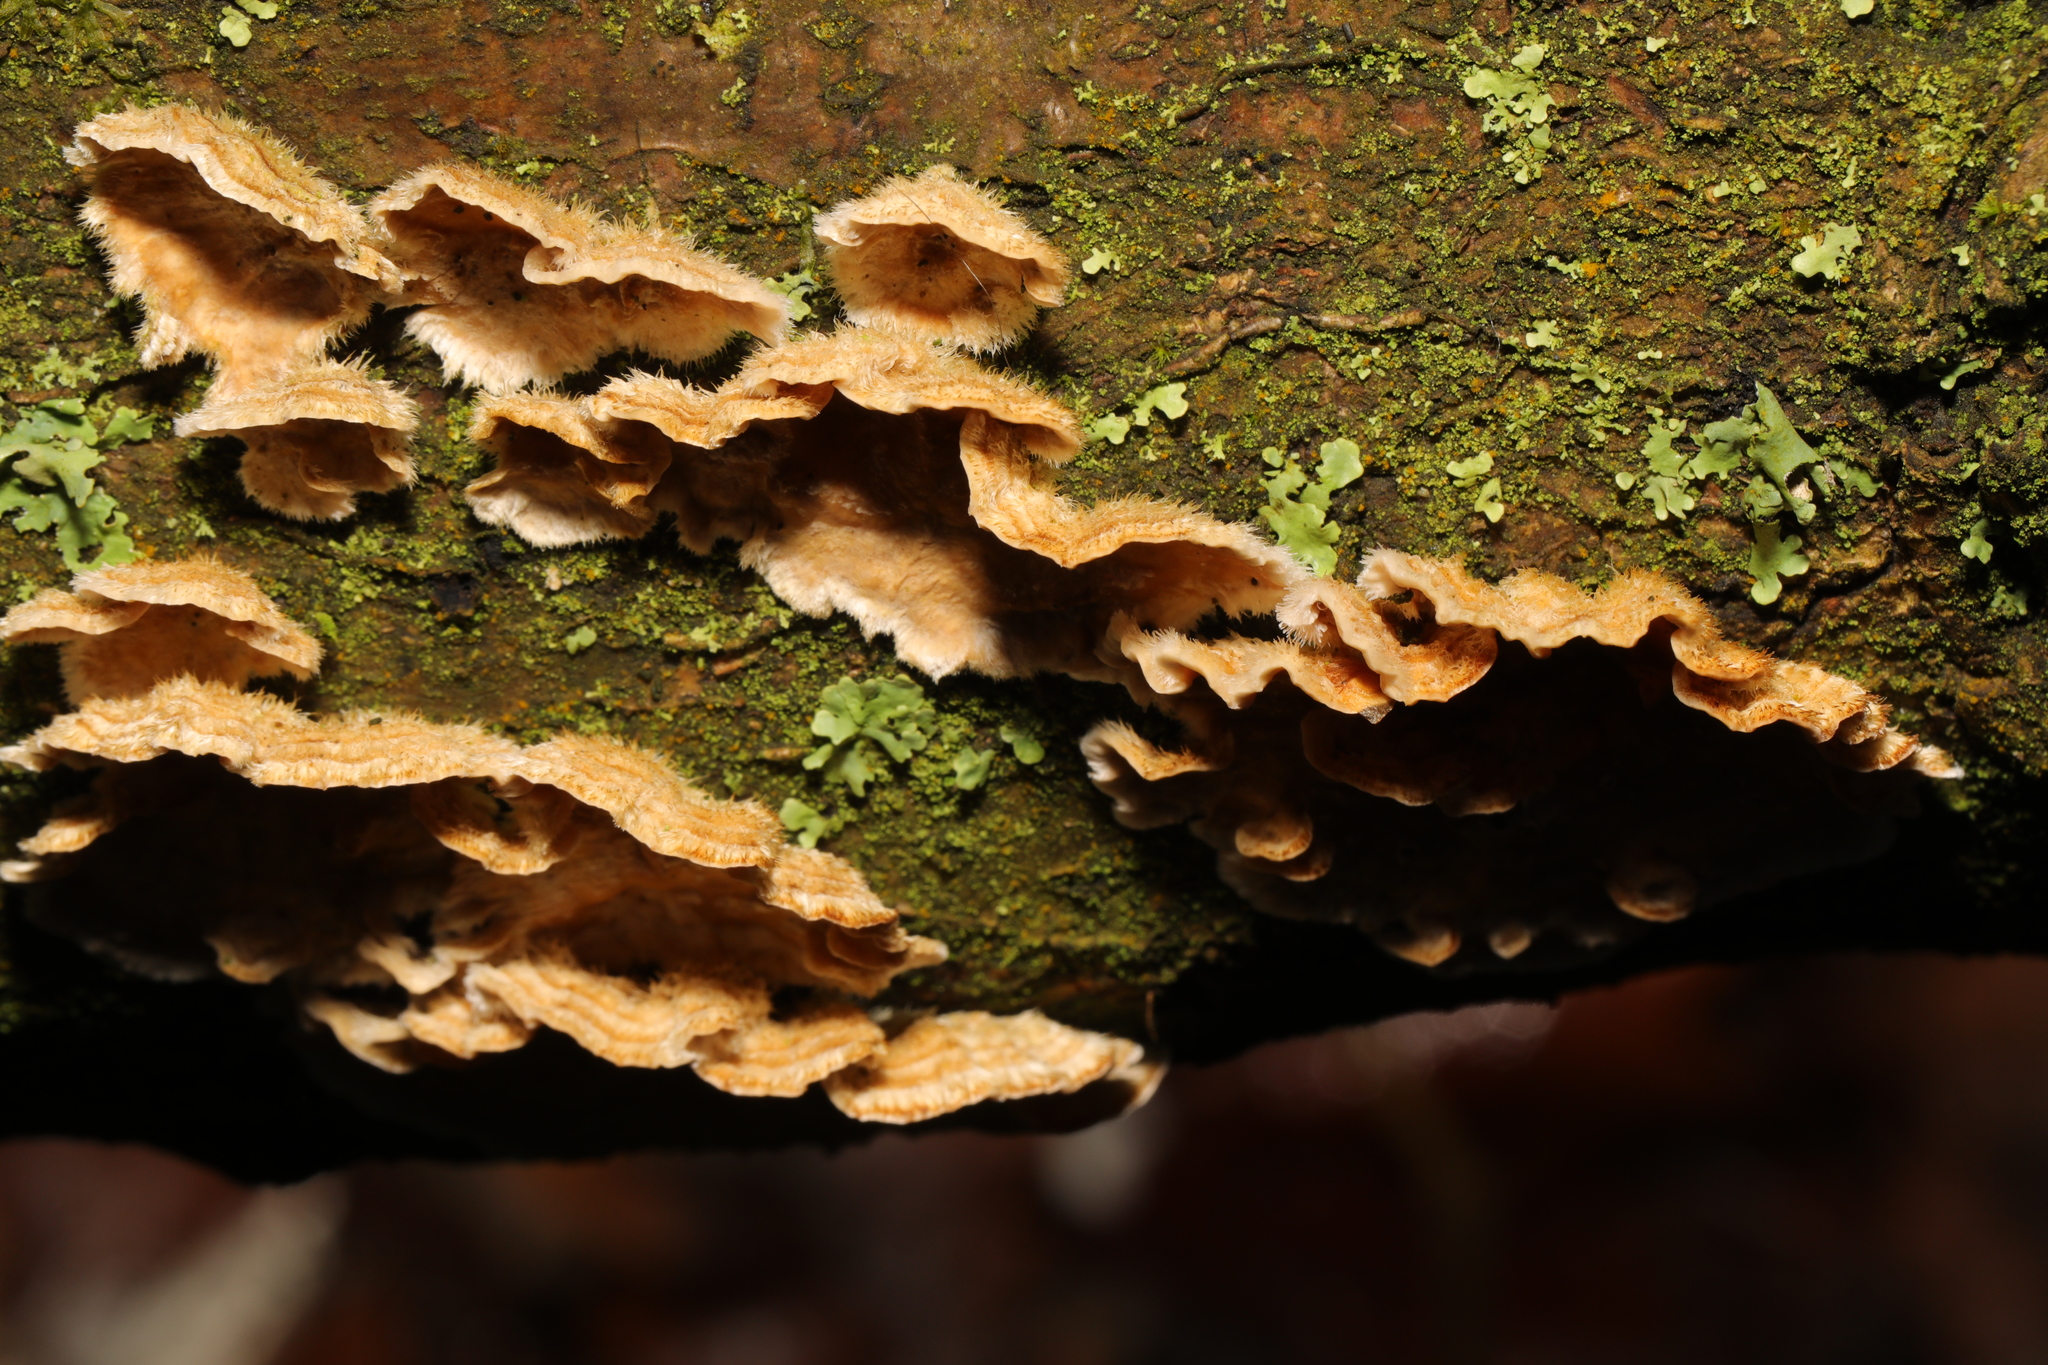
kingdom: Fungi
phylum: Basidiomycota
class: Agaricomycetes
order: Russulales
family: Stereaceae
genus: Stereum
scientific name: Stereum hirsutum
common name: Hairy curtain crust
